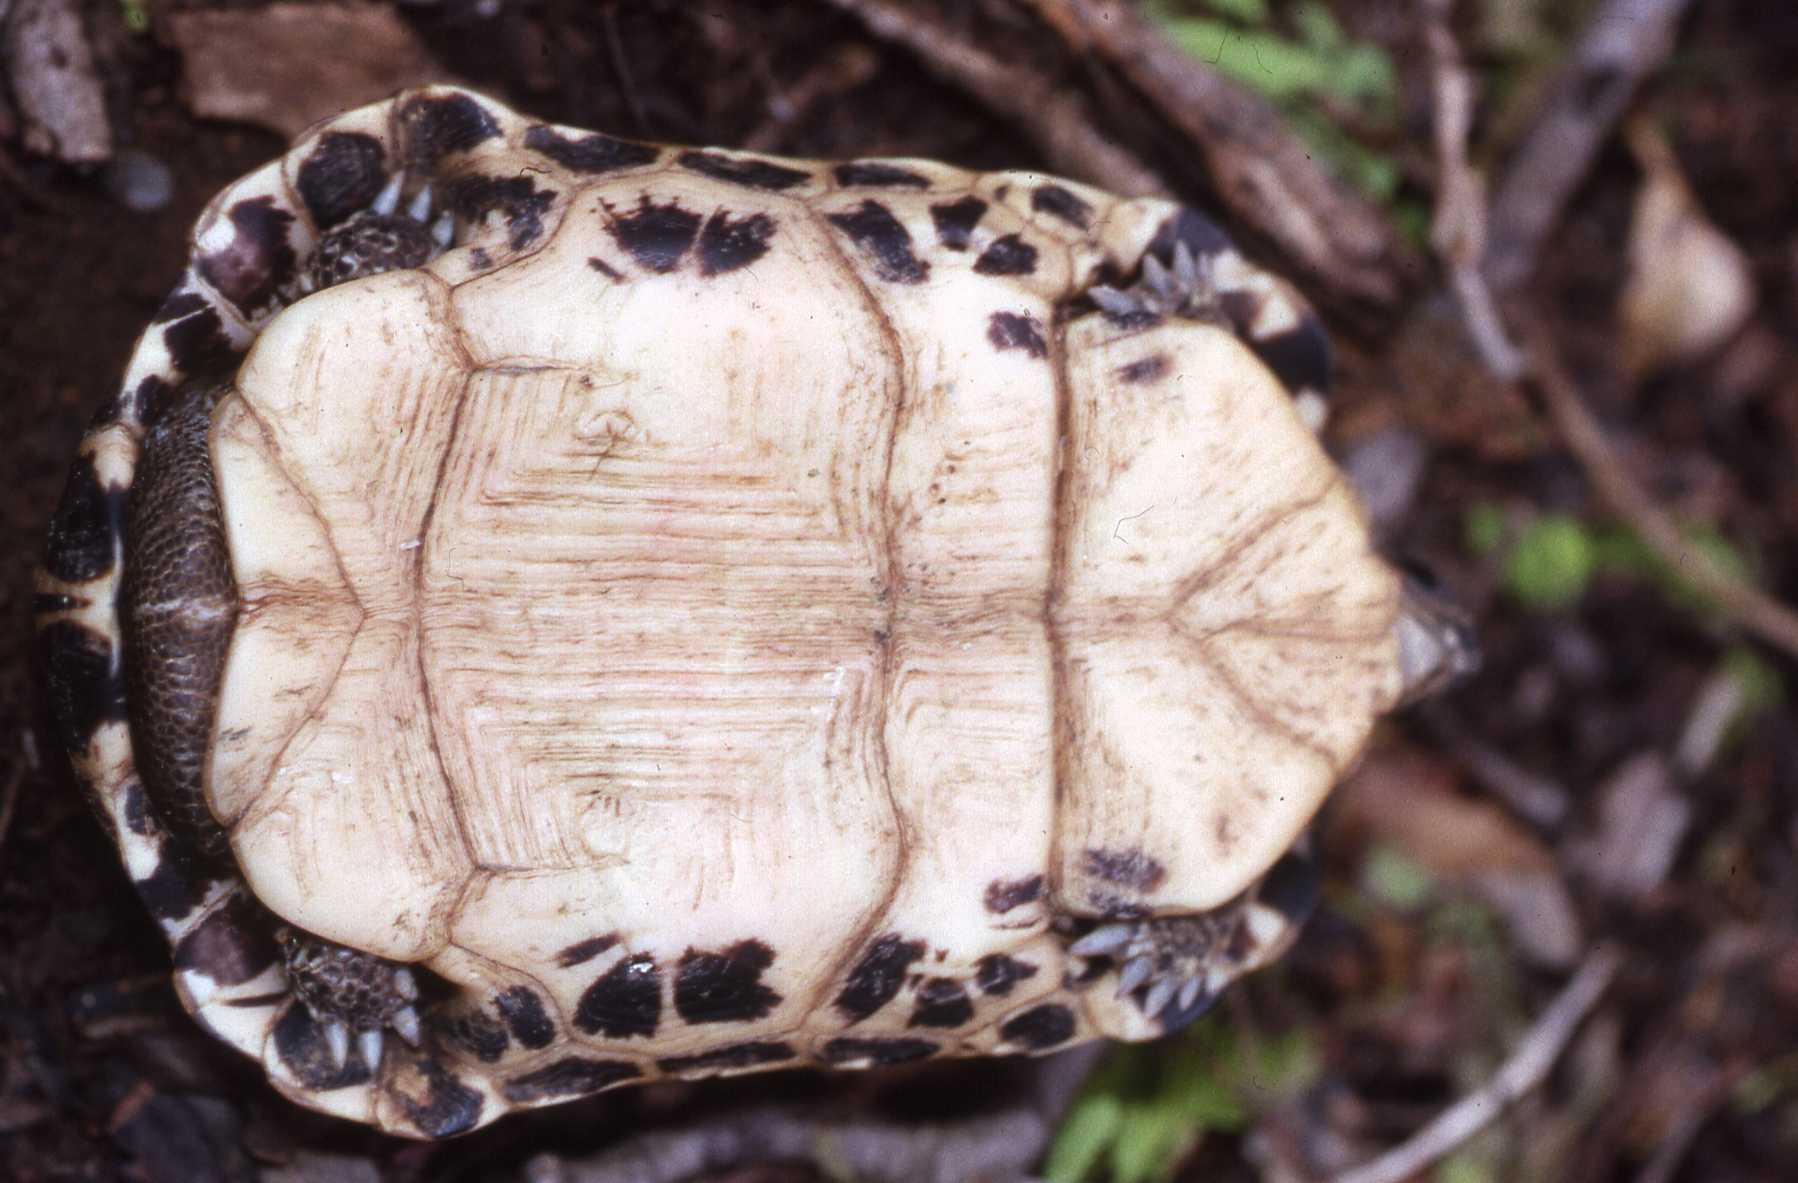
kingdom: Animalia
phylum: Chordata
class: Testudines
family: Testudinidae
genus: Pyxis
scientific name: Pyxis arachnoides
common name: Common spider tortoise
